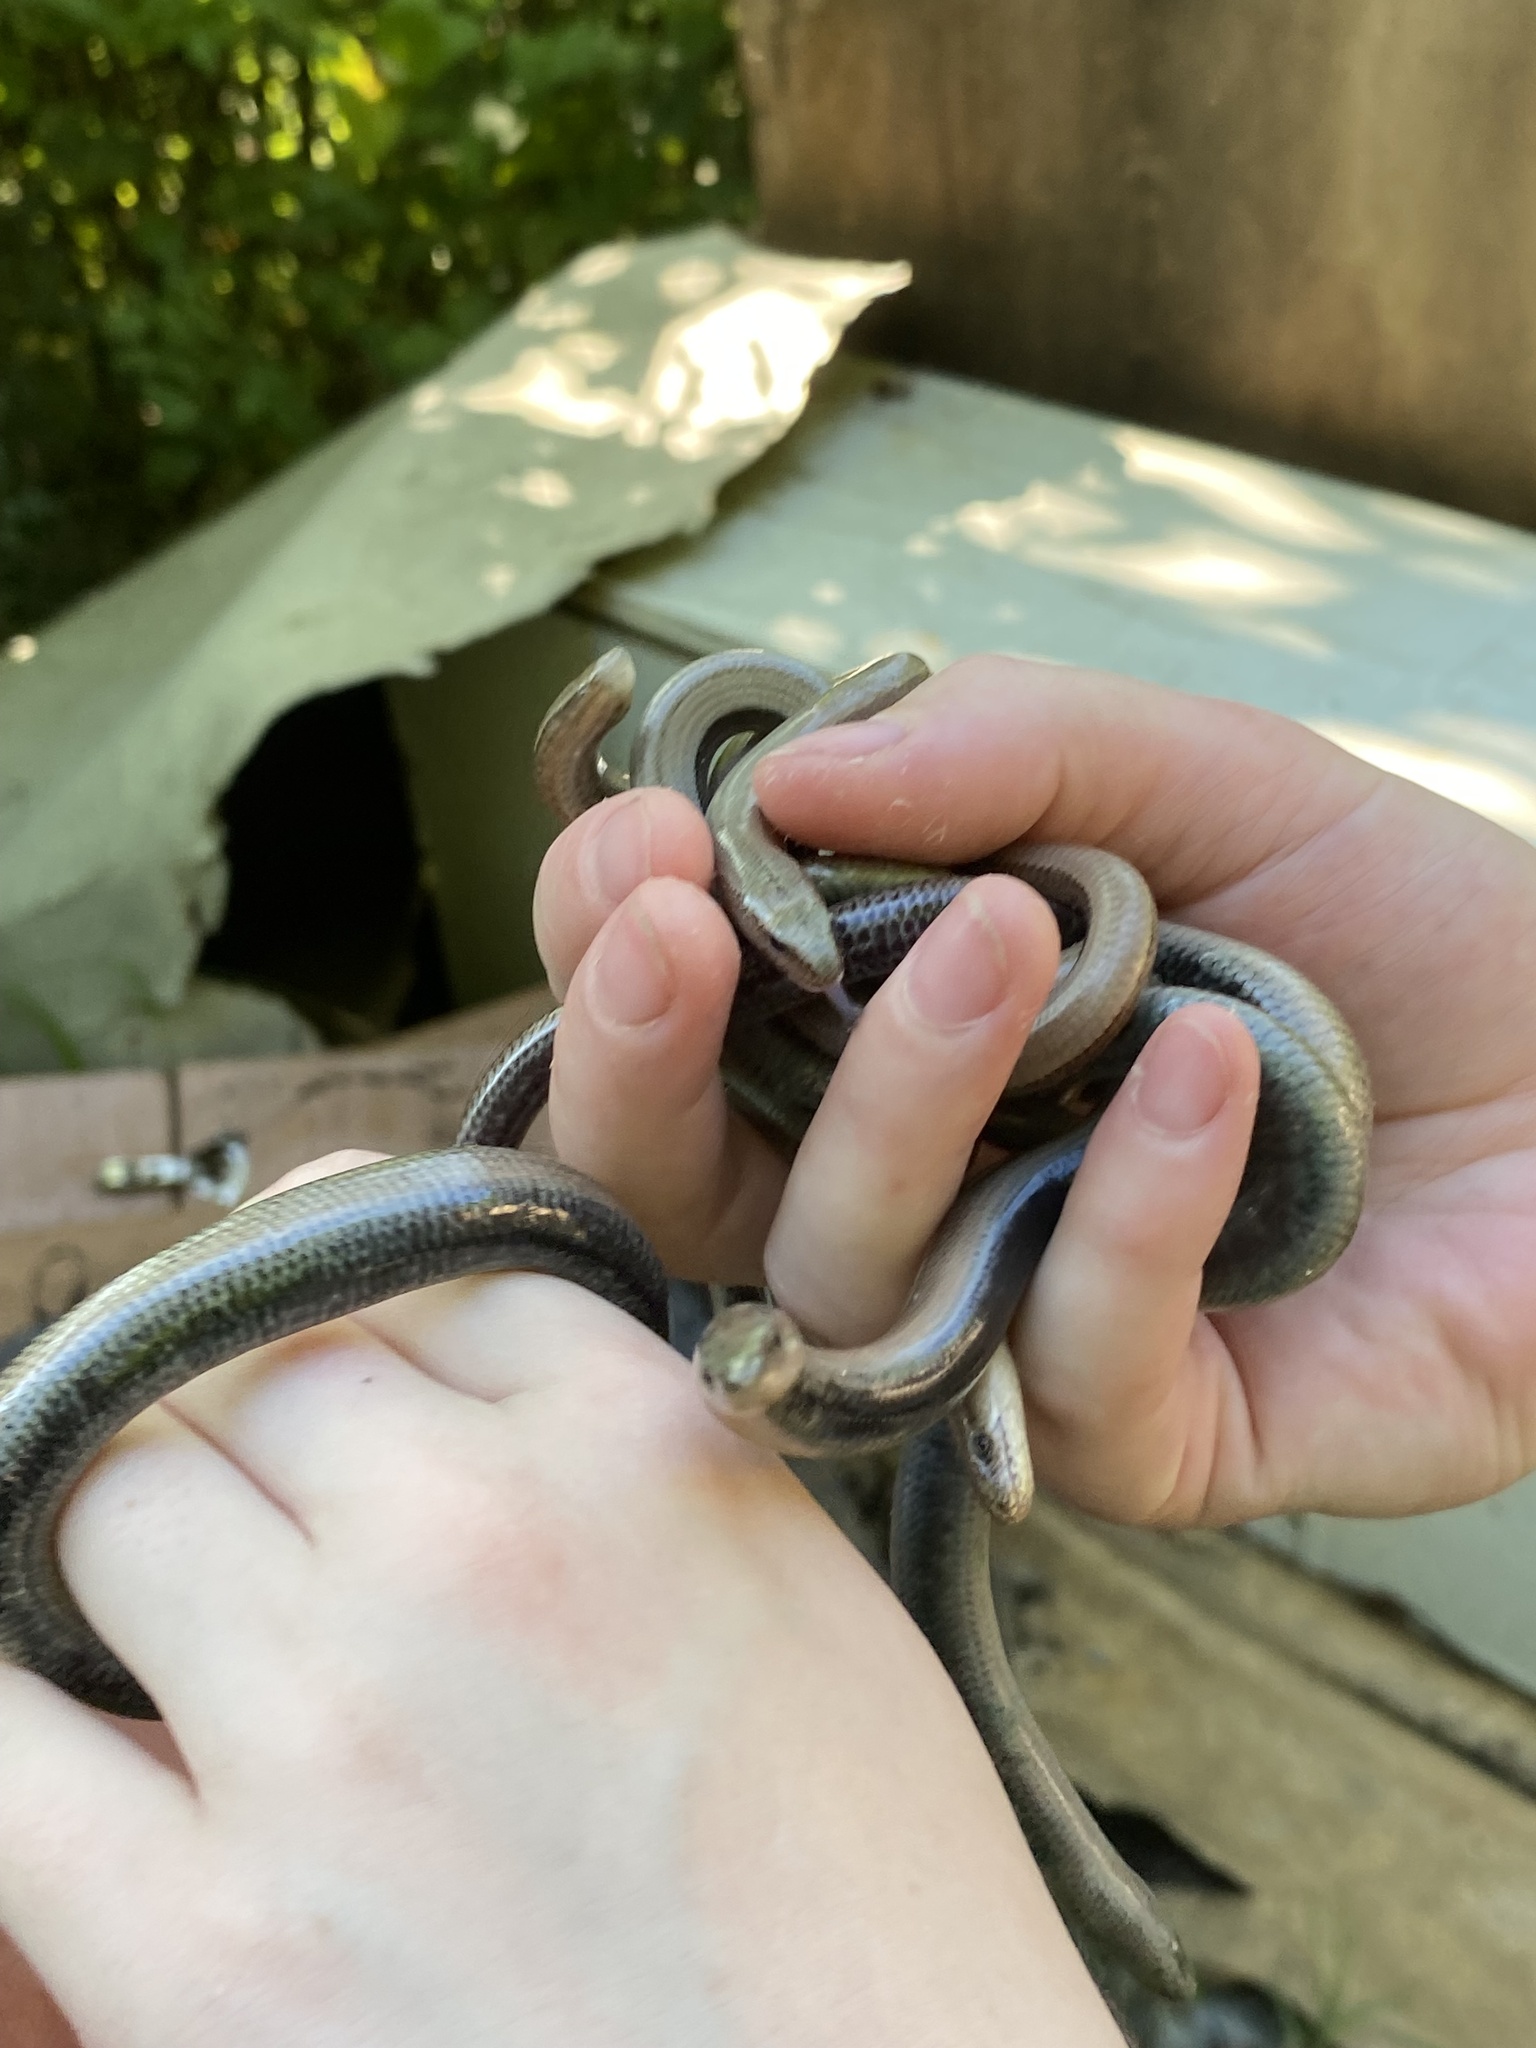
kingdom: Animalia
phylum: Chordata
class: Squamata
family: Anguidae
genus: Anguis
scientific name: Anguis colchica
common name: Slow worm
